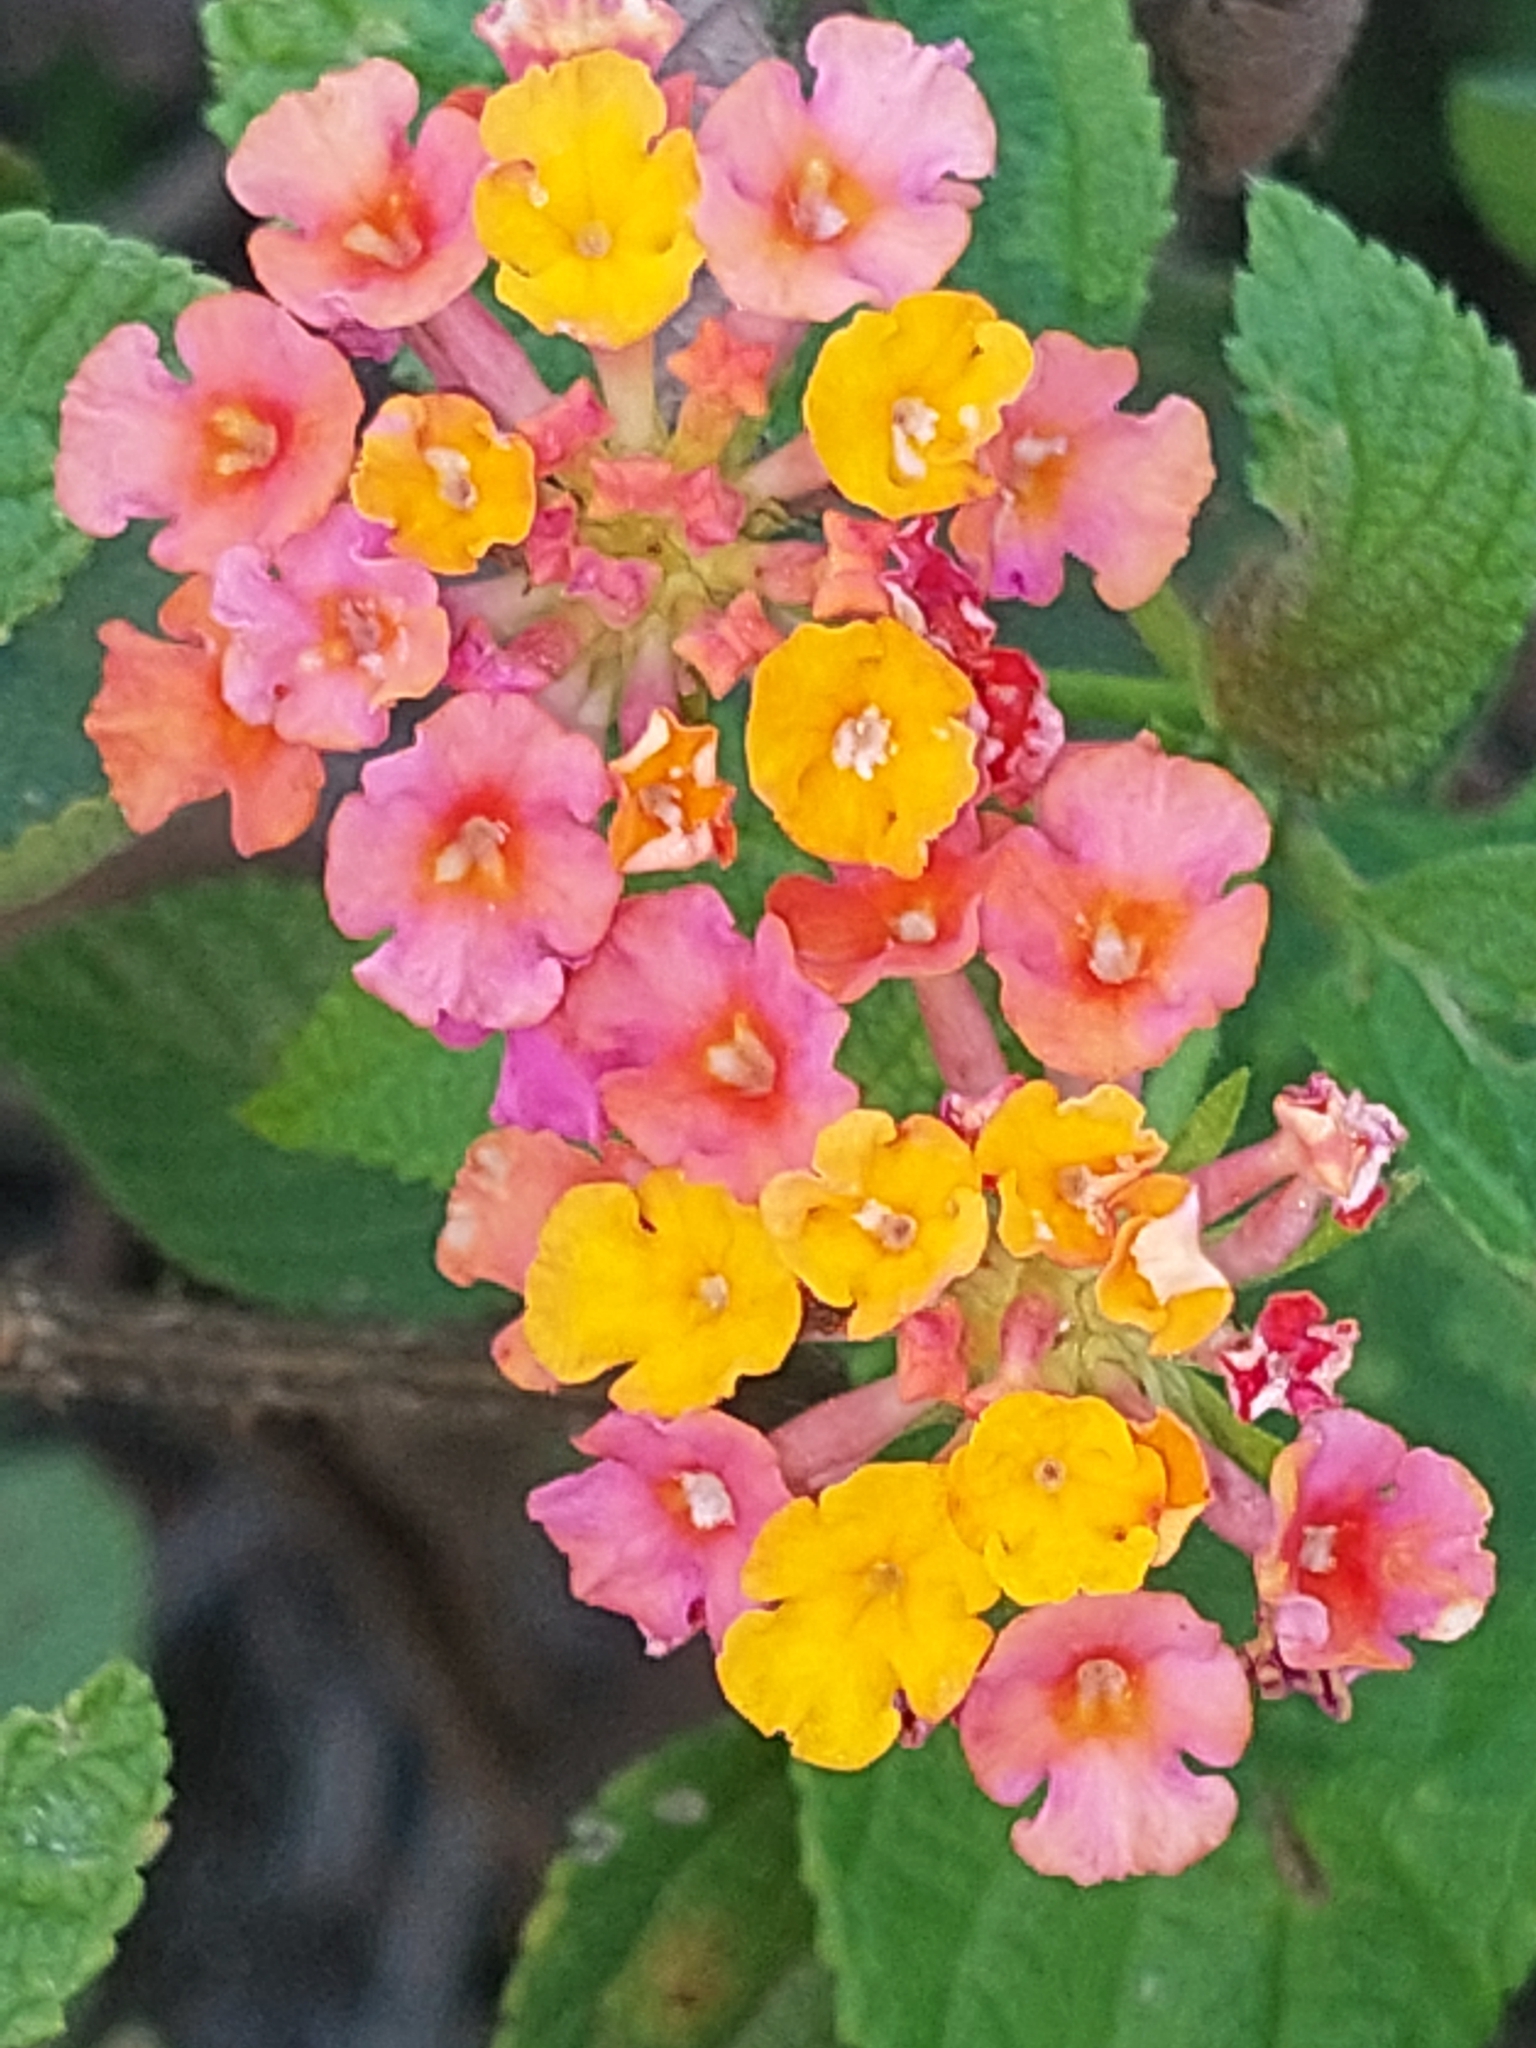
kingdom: Plantae
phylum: Tracheophyta
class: Magnoliopsida
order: Lamiales
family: Verbenaceae
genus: Lantana
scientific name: Lantana camara
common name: Lantana
